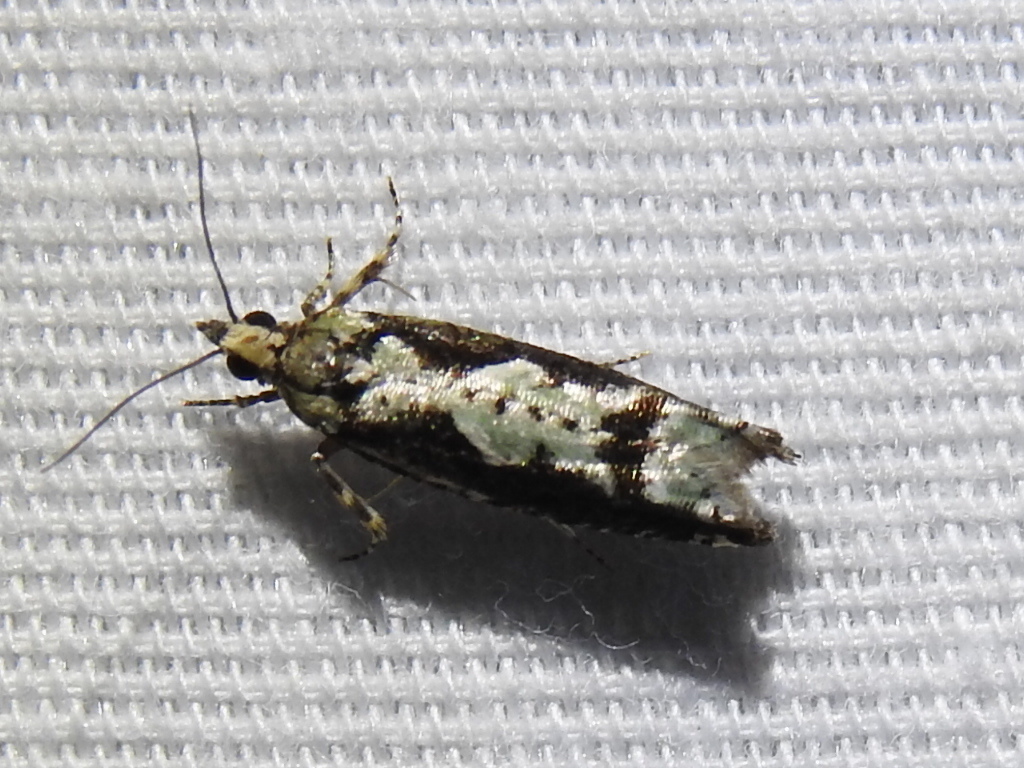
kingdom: Animalia
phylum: Arthropoda
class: Insecta
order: Lepidoptera
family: Tortricidae
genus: Chimoptesis
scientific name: Chimoptesis pennsylvaniana
